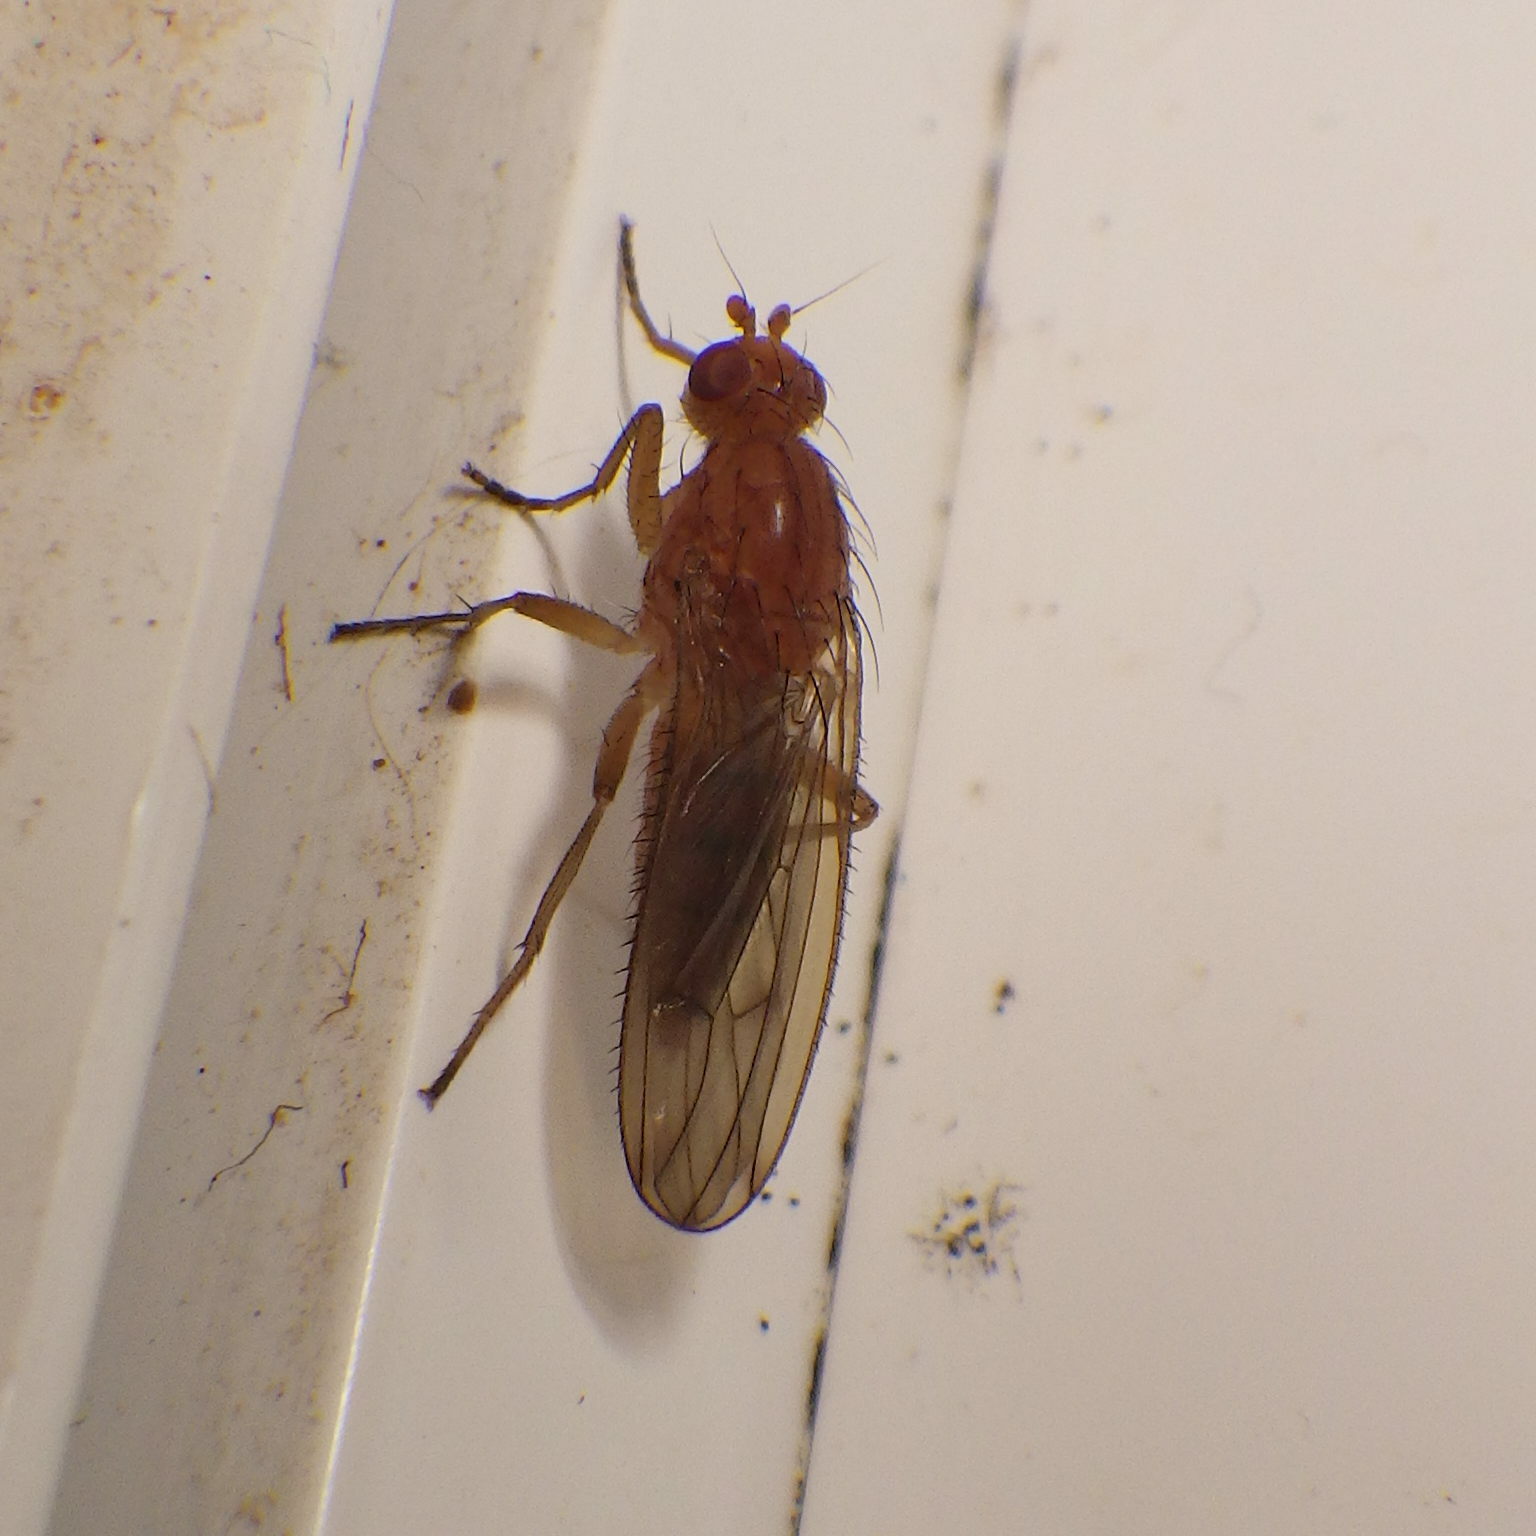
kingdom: Animalia
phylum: Arthropoda
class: Insecta
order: Diptera
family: Heleomyzidae
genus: Scoliocentra
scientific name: Scoliocentra flavotestacea
